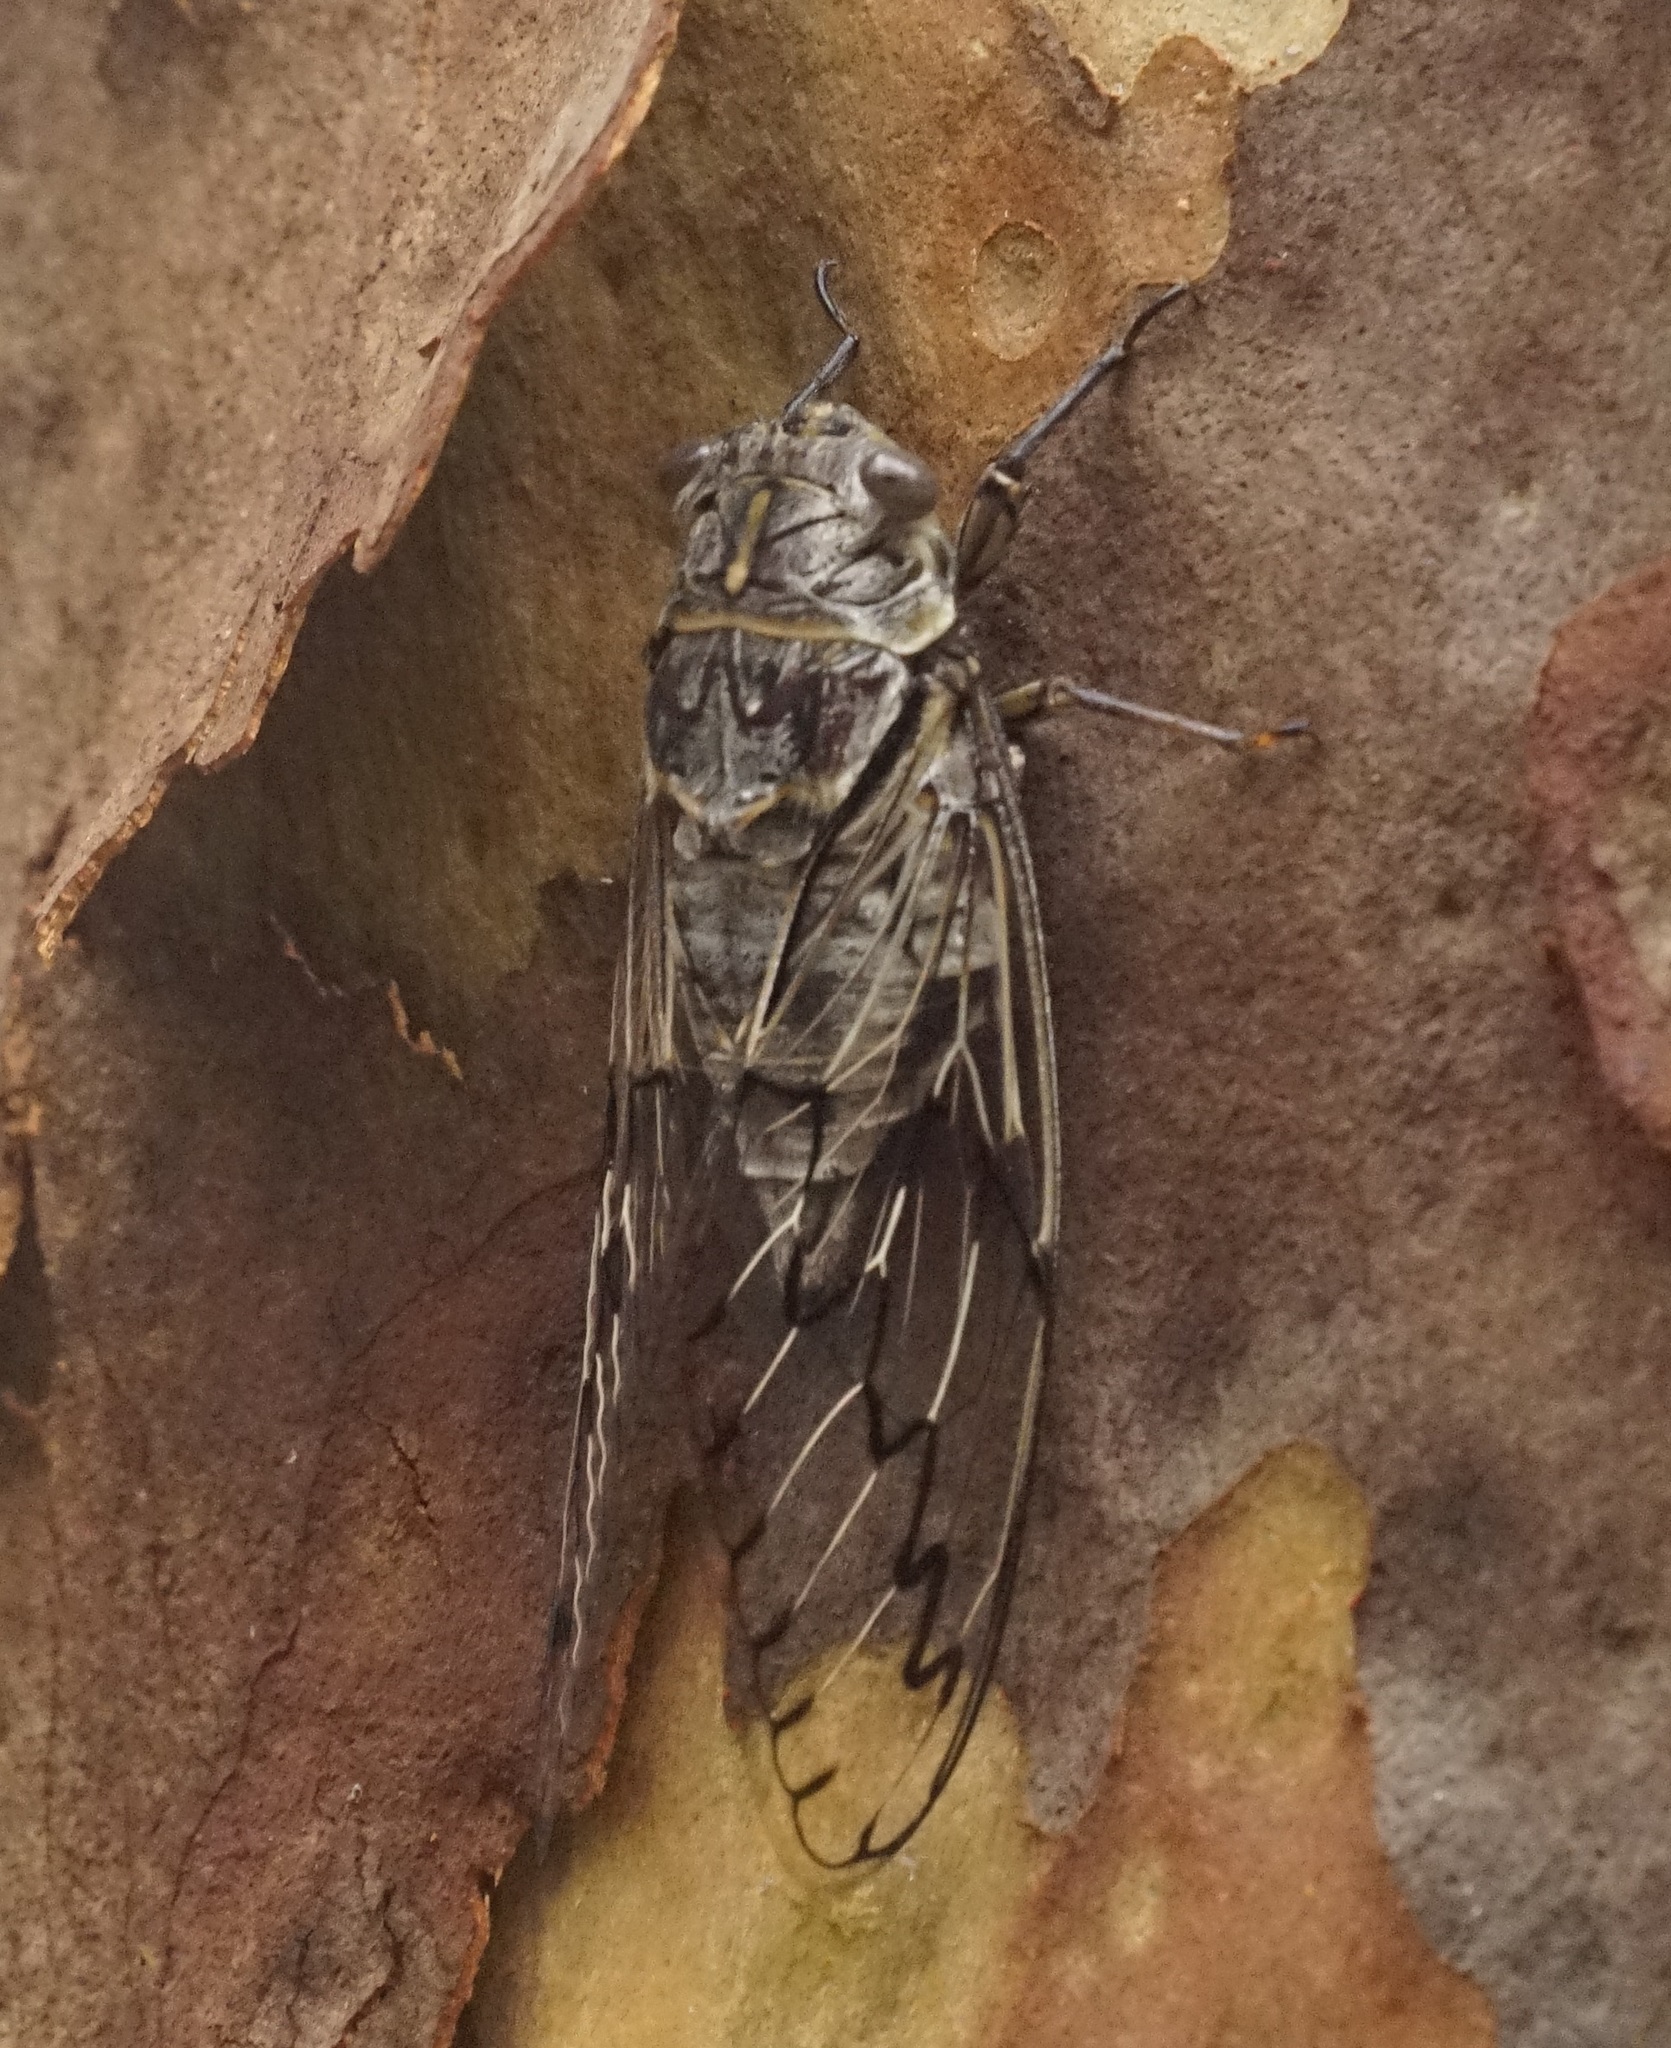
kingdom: Animalia
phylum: Arthropoda
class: Insecta
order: Hemiptera
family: Cicadidae
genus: Henicopsaltria
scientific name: Henicopsaltria eydouxii
